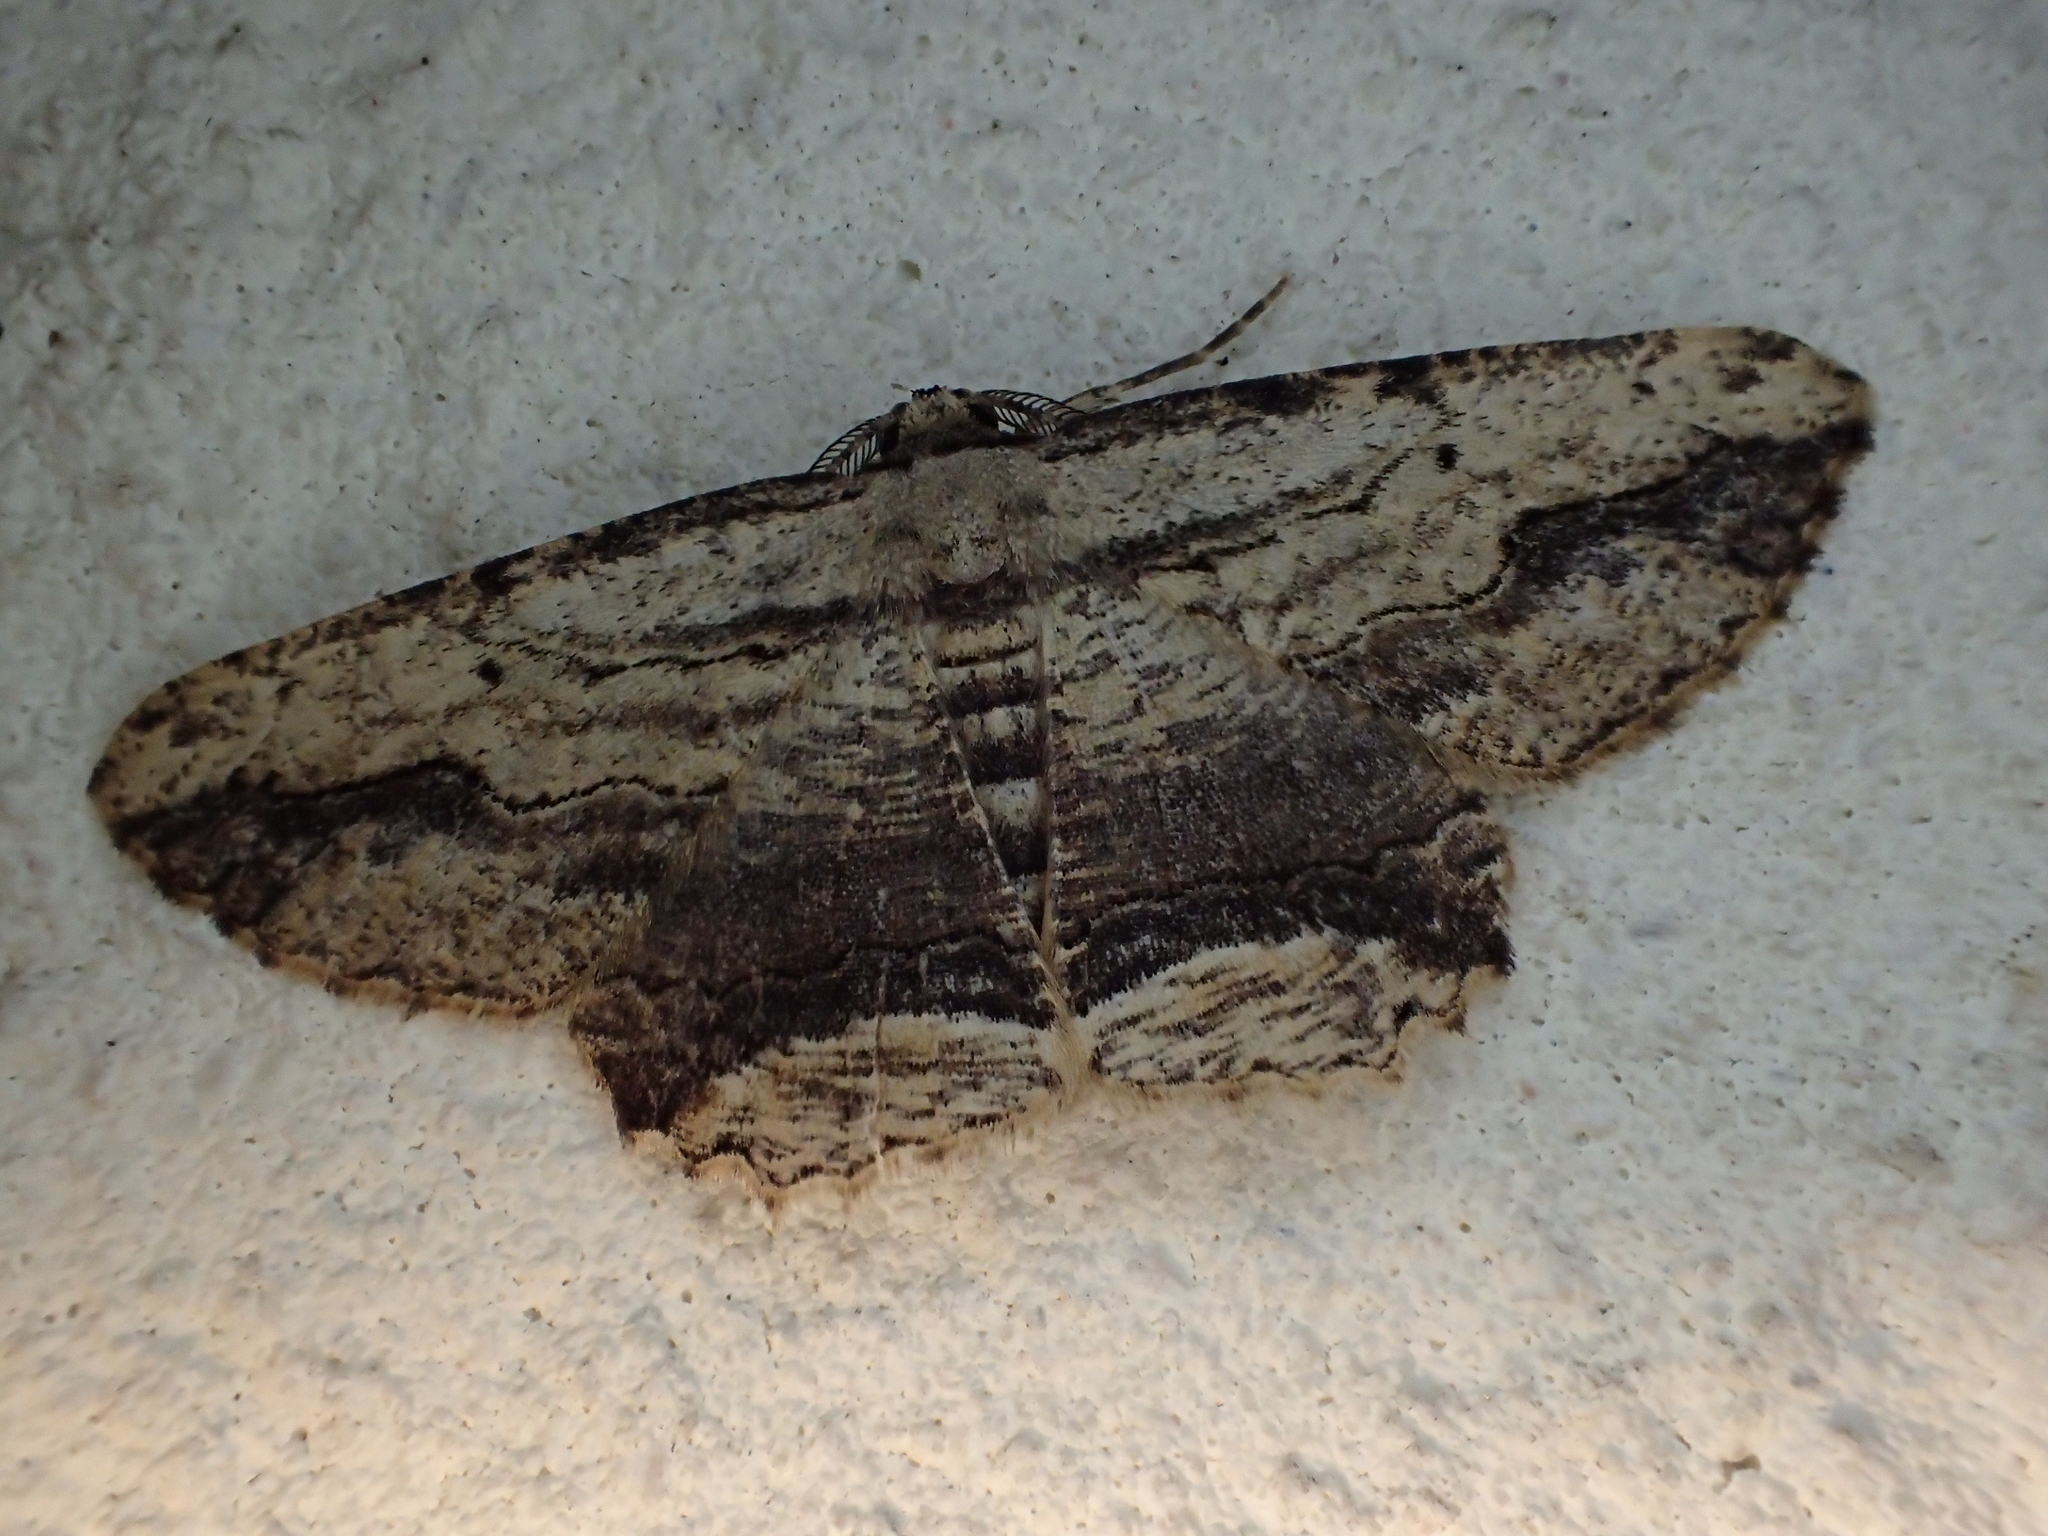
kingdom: Animalia
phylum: Arthropoda
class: Insecta
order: Lepidoptera
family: Geometridae
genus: Menophra
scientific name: Menophra abruptaria
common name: Waved umber
